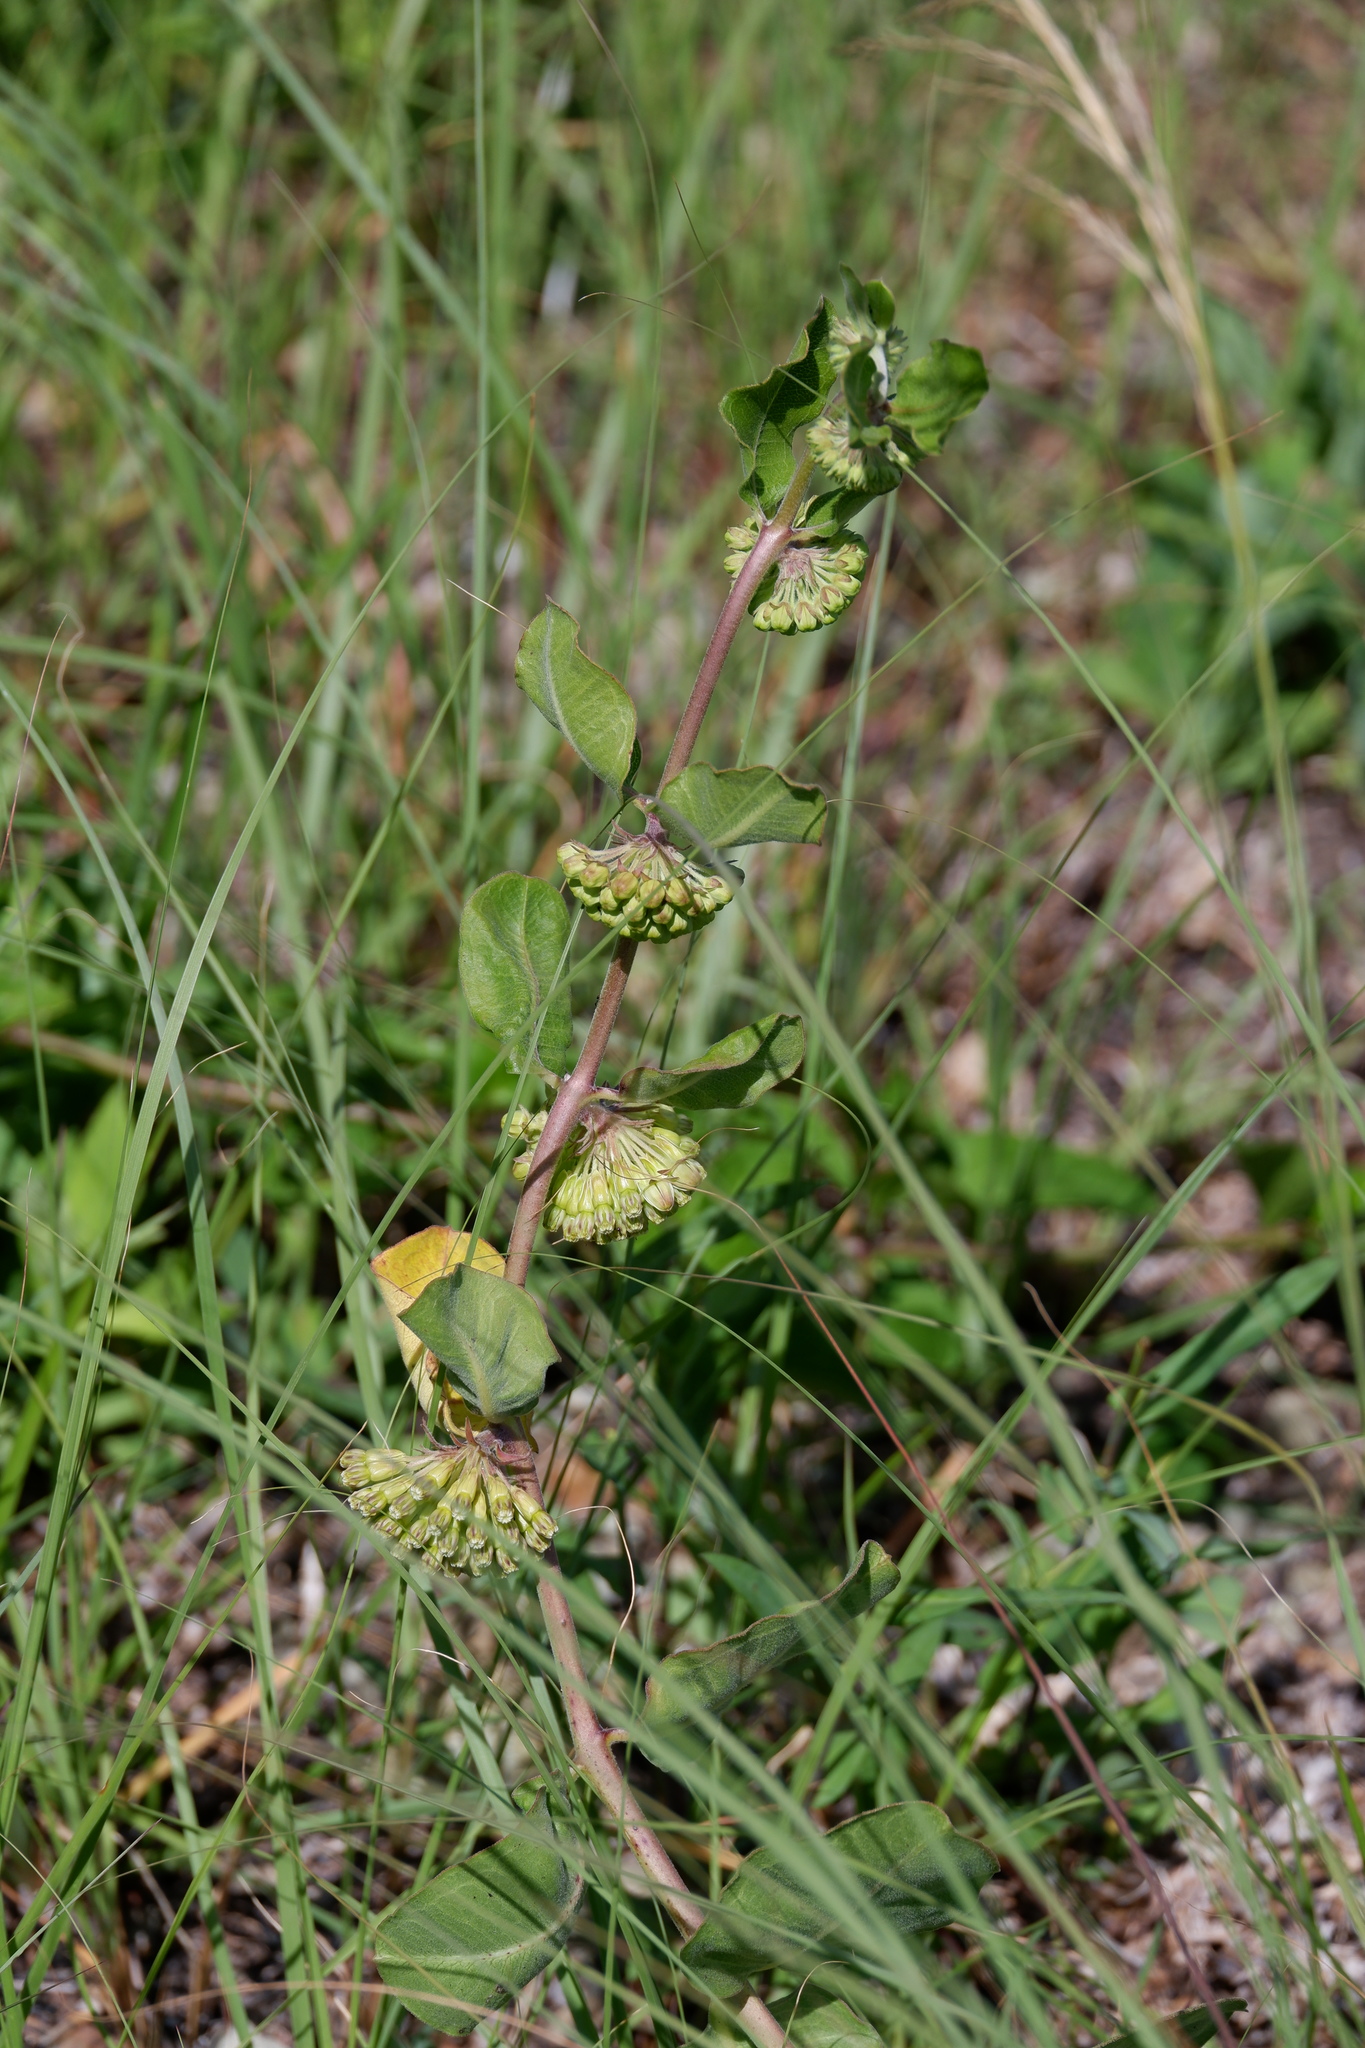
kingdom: Plantae
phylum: Tracheophyta
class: Magnoliopsida
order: Gentianales
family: Apocynaceae
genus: Asclepias
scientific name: Asclepias viridiflora
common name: Green comet milkweed
